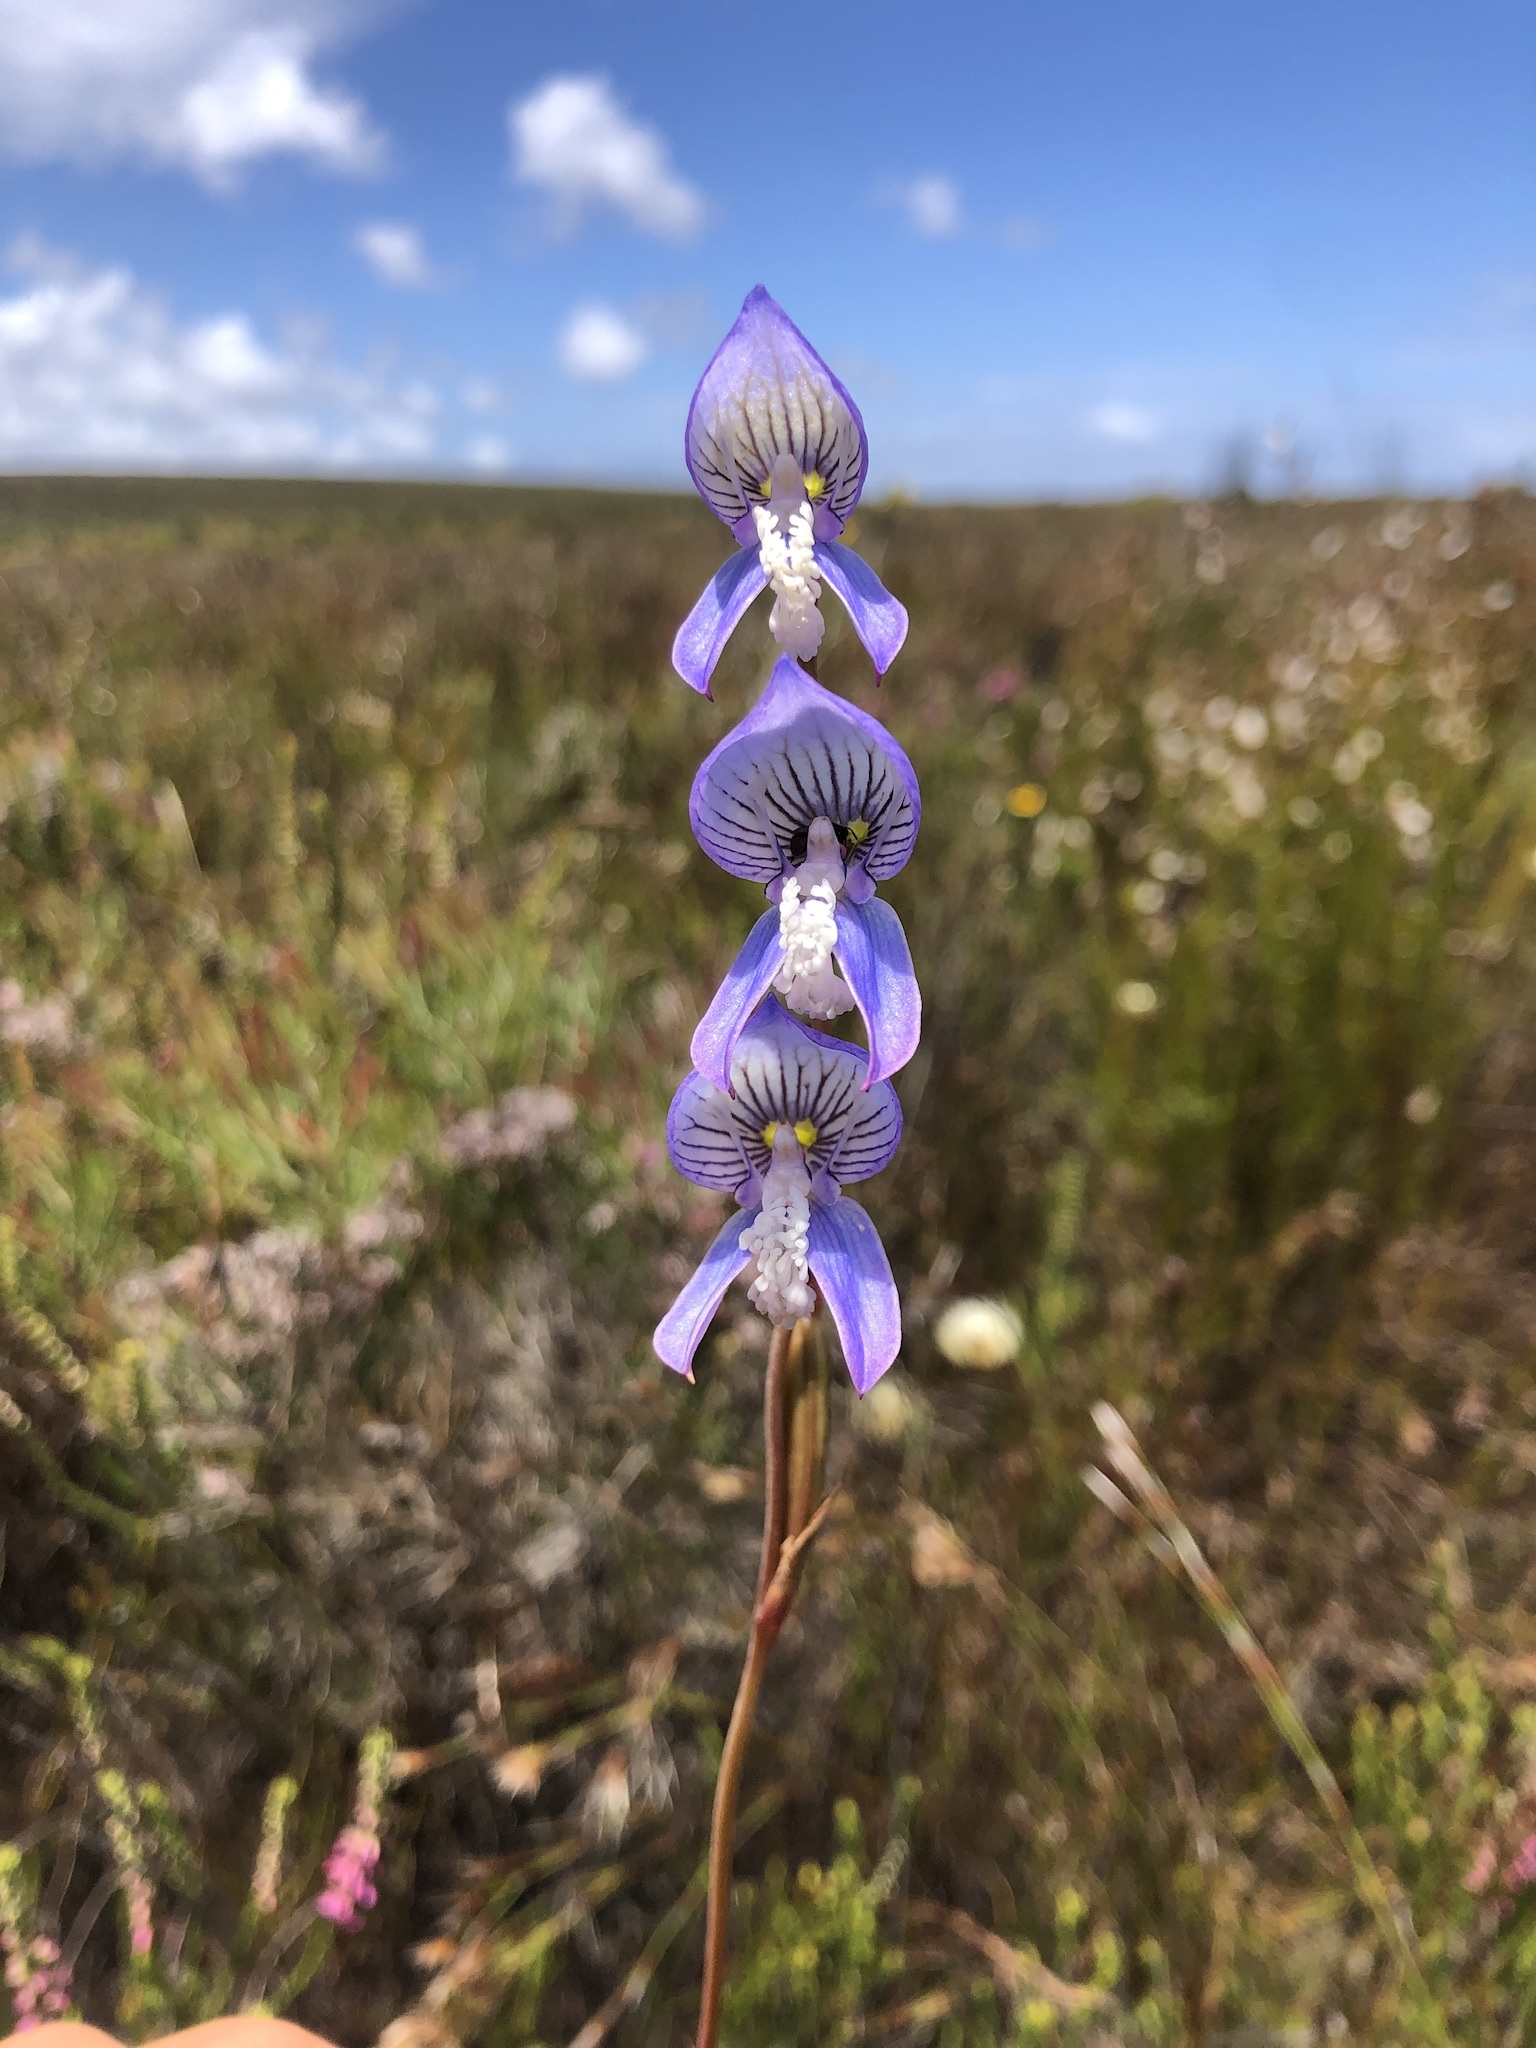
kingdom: Plantae
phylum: Tracheophyta
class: Liliopsida
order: Asparagales
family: Orchidaceae
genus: Disa
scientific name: Disa venusta
